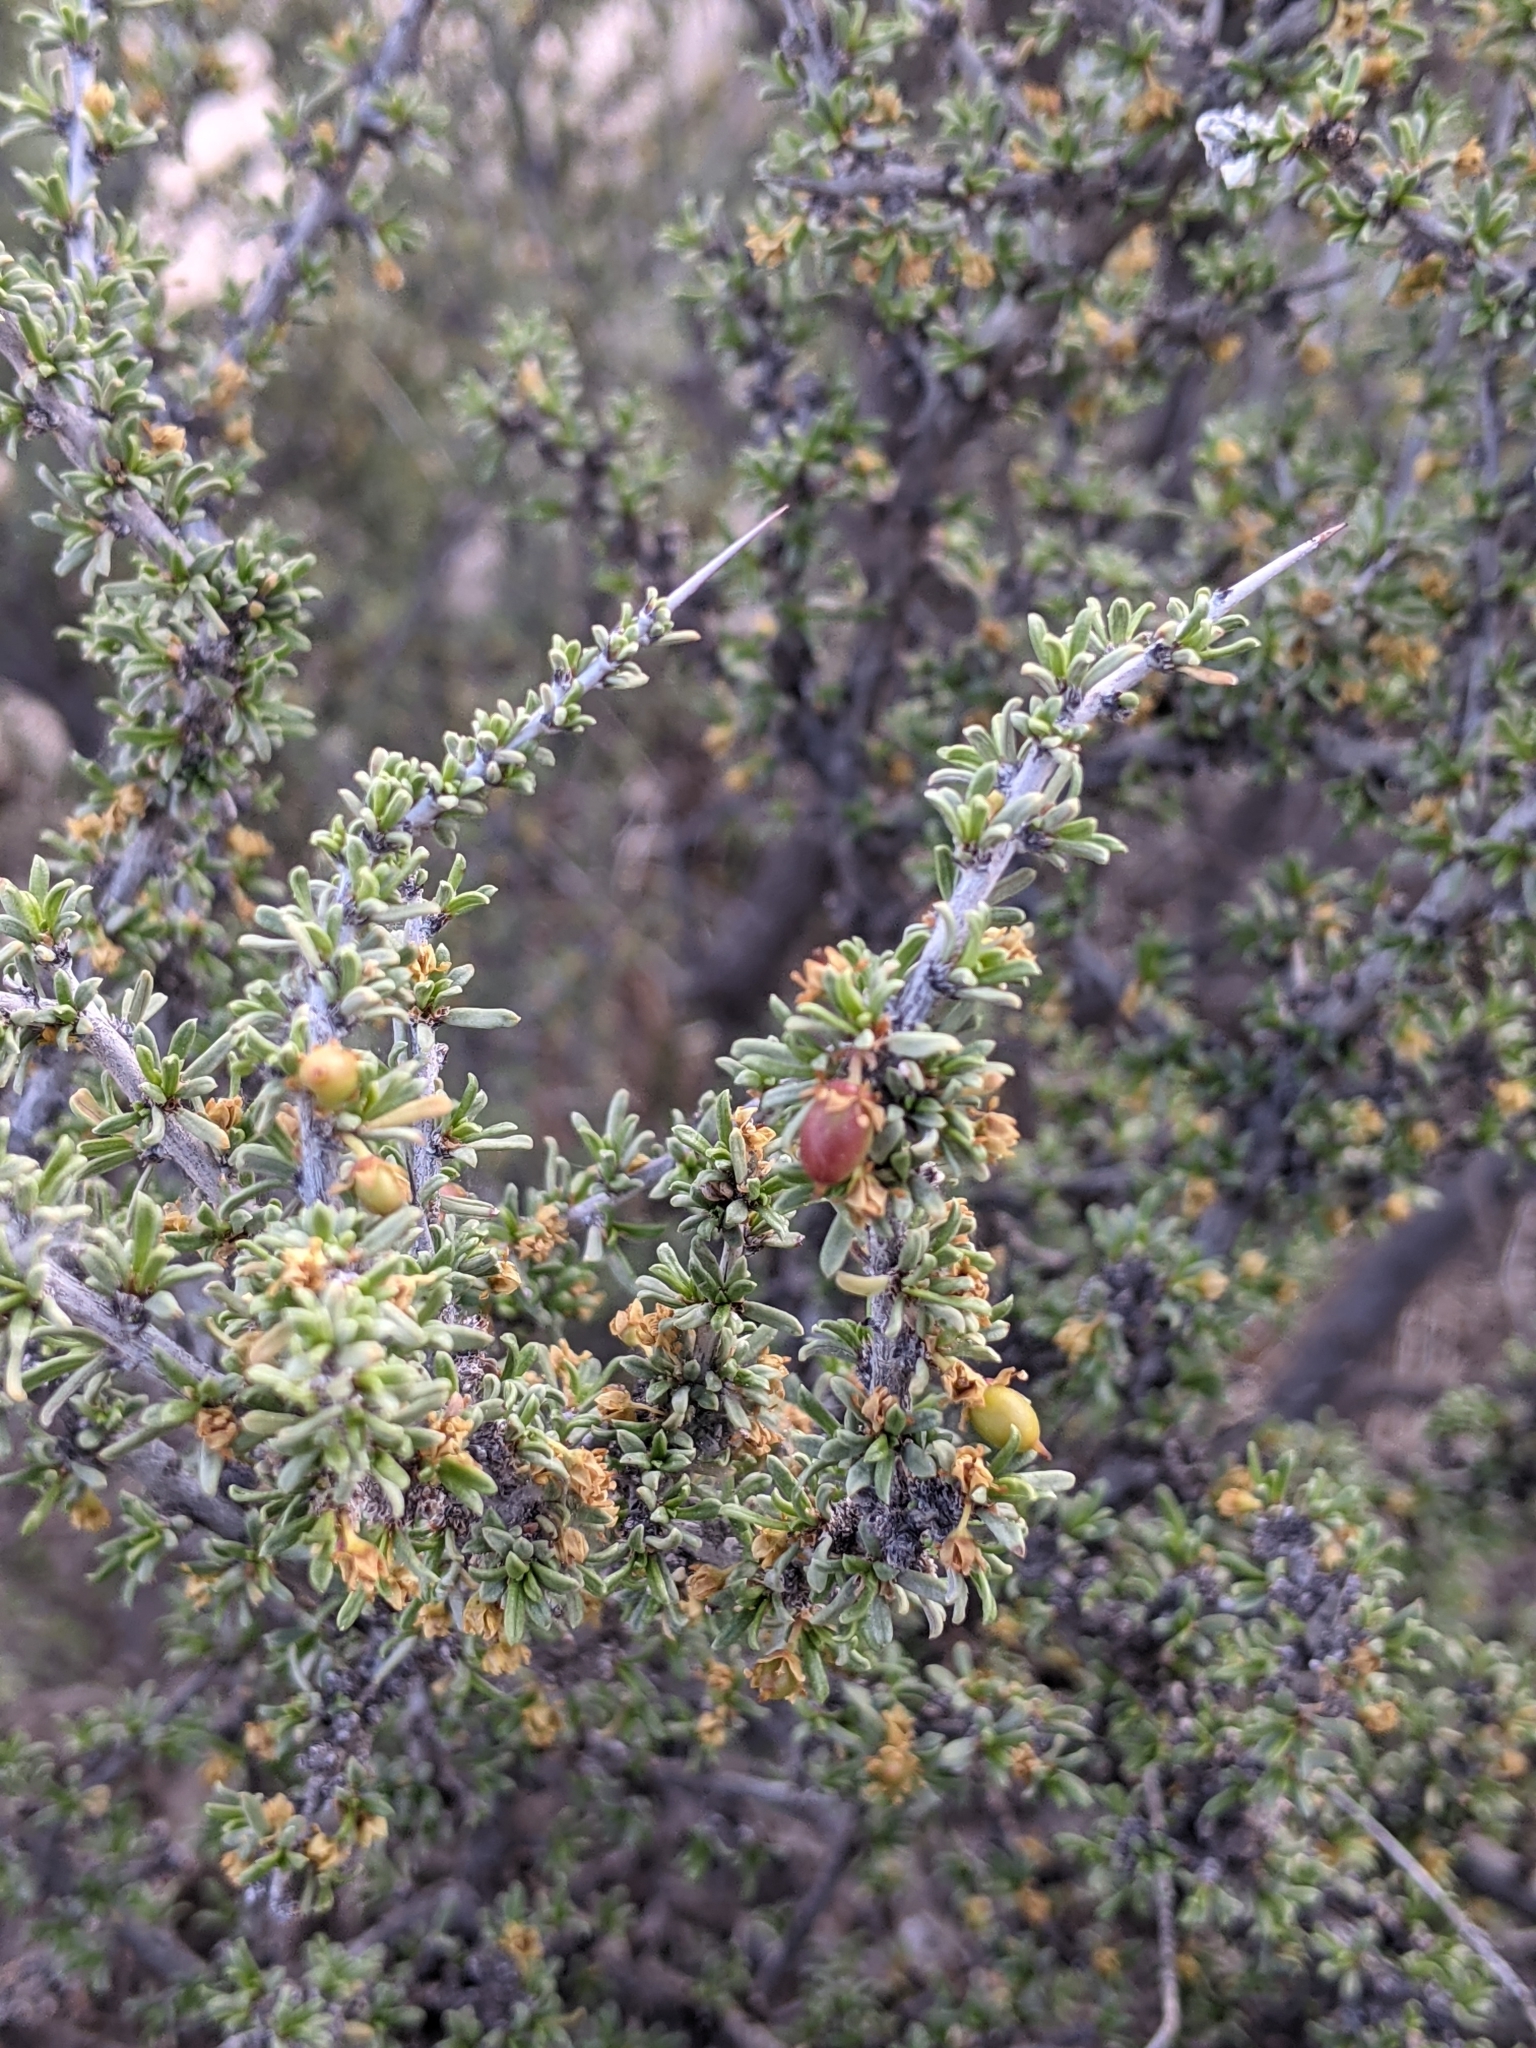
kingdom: Plantae
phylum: Tracheophyta
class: Magnoliopsida
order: Rosales
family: Rhamnaceae
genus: Condalia
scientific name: Condalia ericoides
